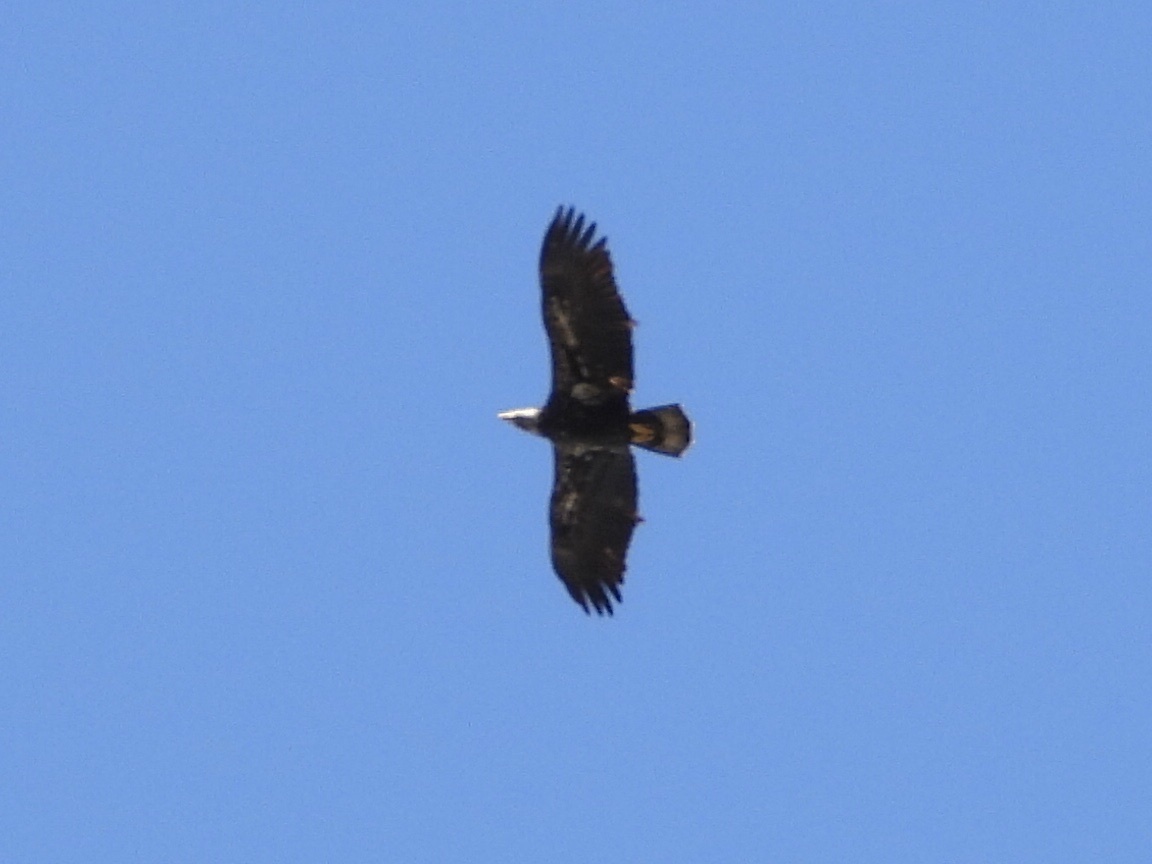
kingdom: Animalia
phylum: Chordata
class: Aves
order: Accipitriformes
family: Accipitridae
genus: Haliaeetus
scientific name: Haliaeetus leucocephalus
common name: Bald eagle
